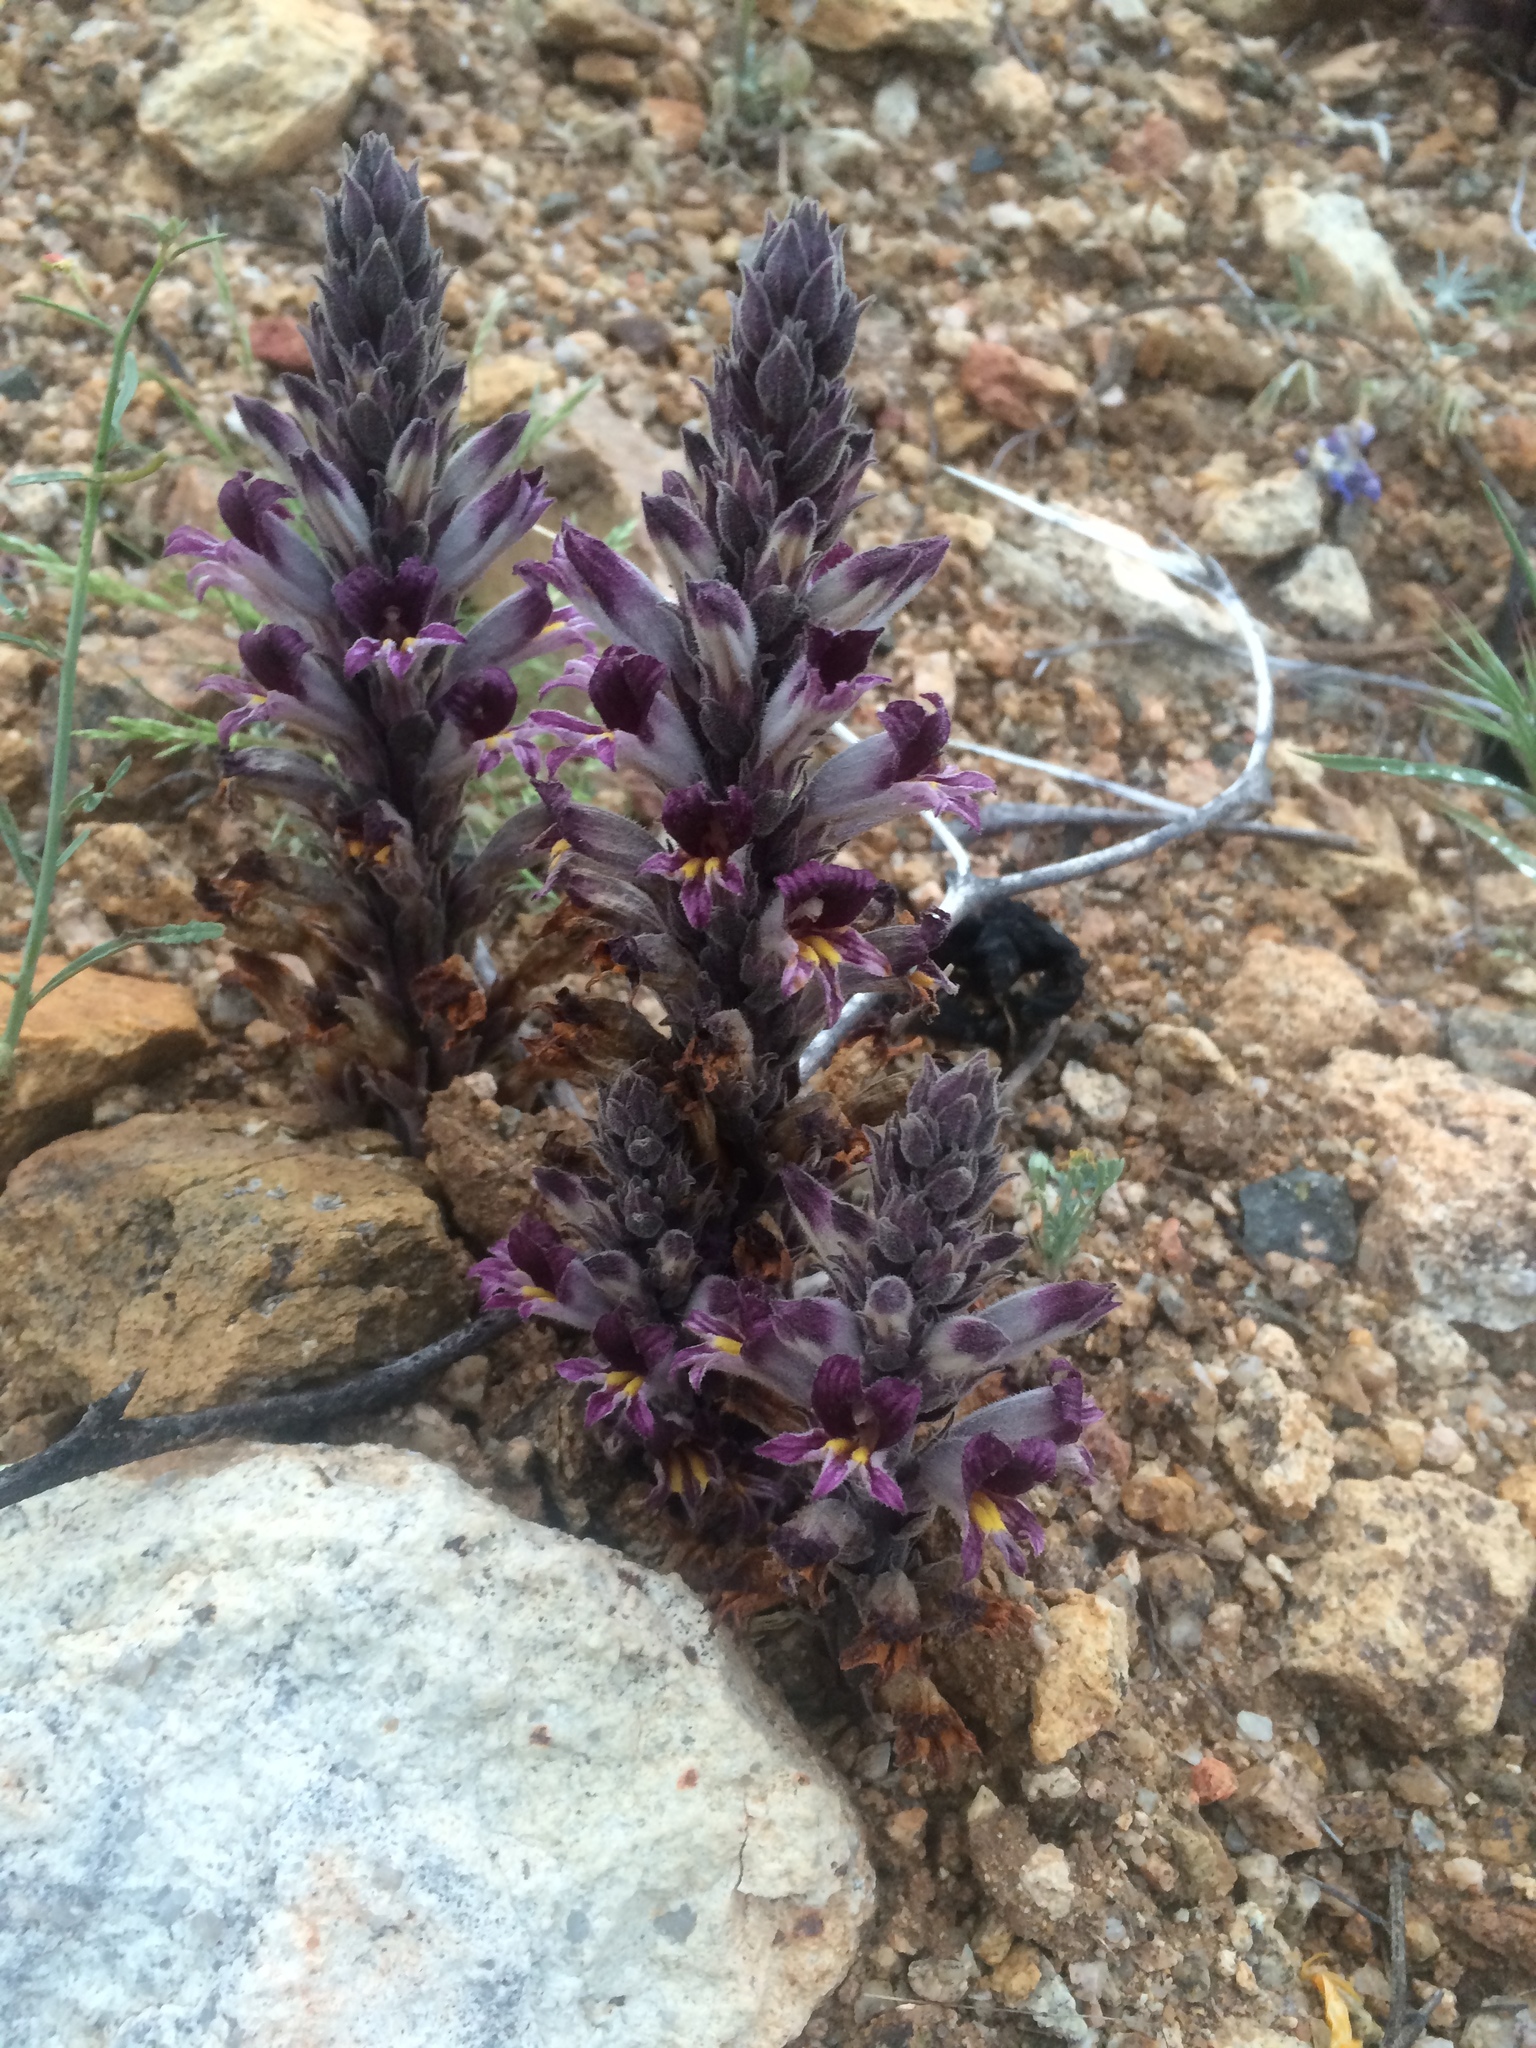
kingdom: Plantae
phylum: Tracheophyta
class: Magnoliopsida
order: Lamiales
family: Orobanchaceae
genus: Aphyllon
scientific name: Aphyllon cooperi
